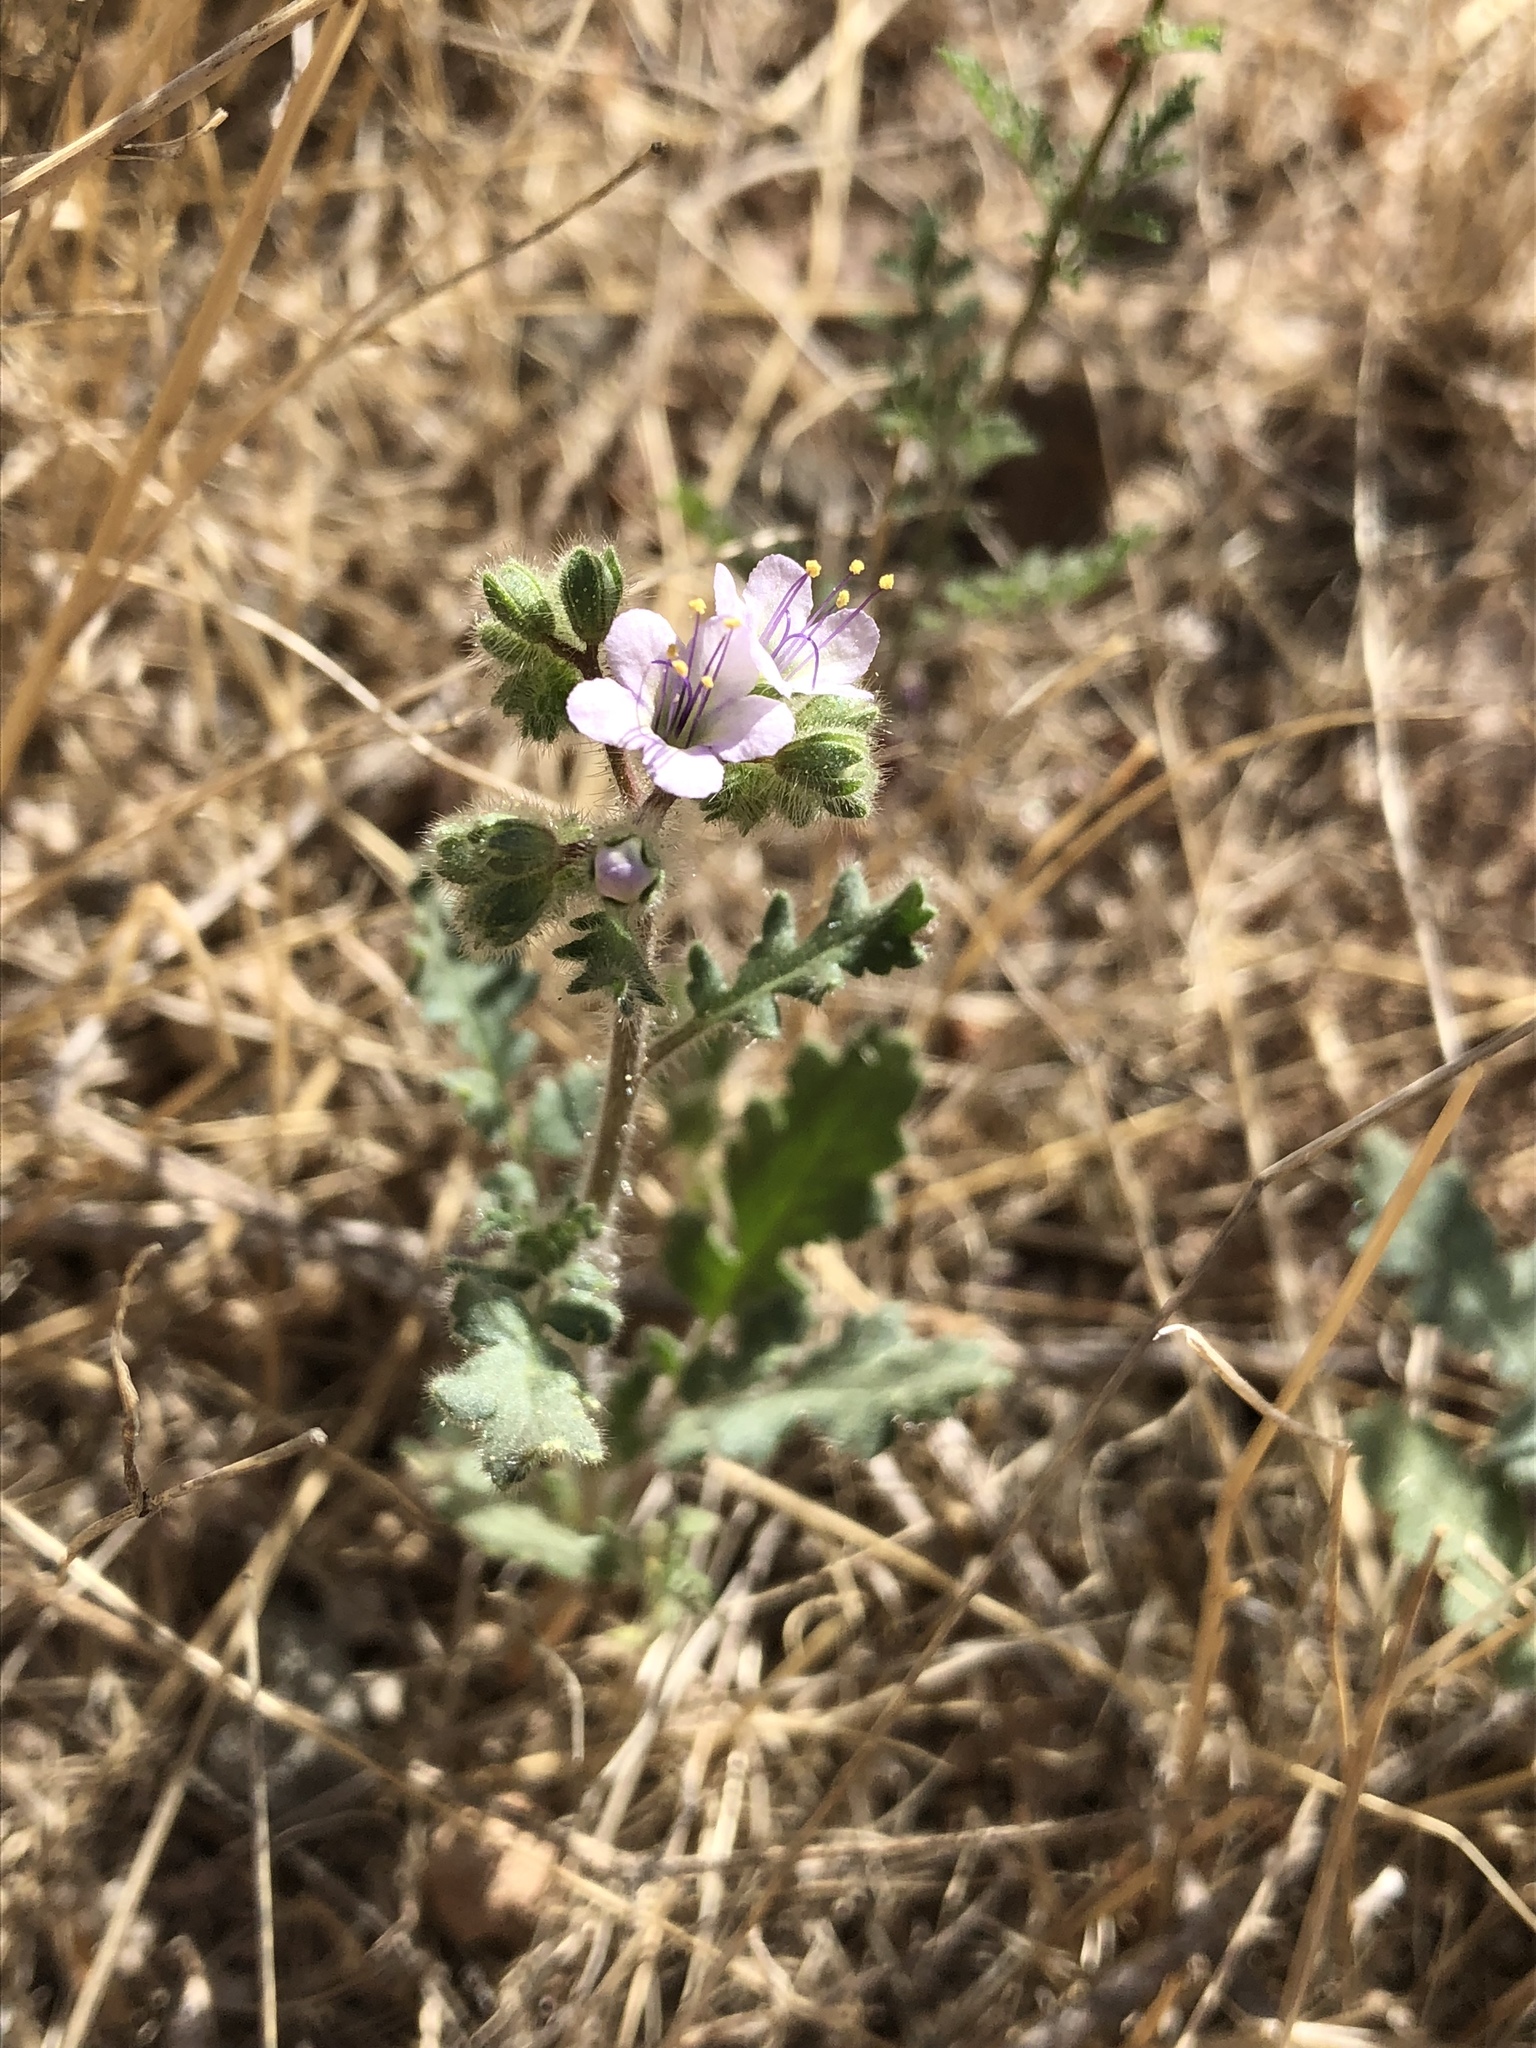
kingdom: Plantae
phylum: Tracheophyta
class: Magnoliopsida
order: Boraginales
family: Hydrophyllaceae
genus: Phacelia
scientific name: Phacelia crenulata
